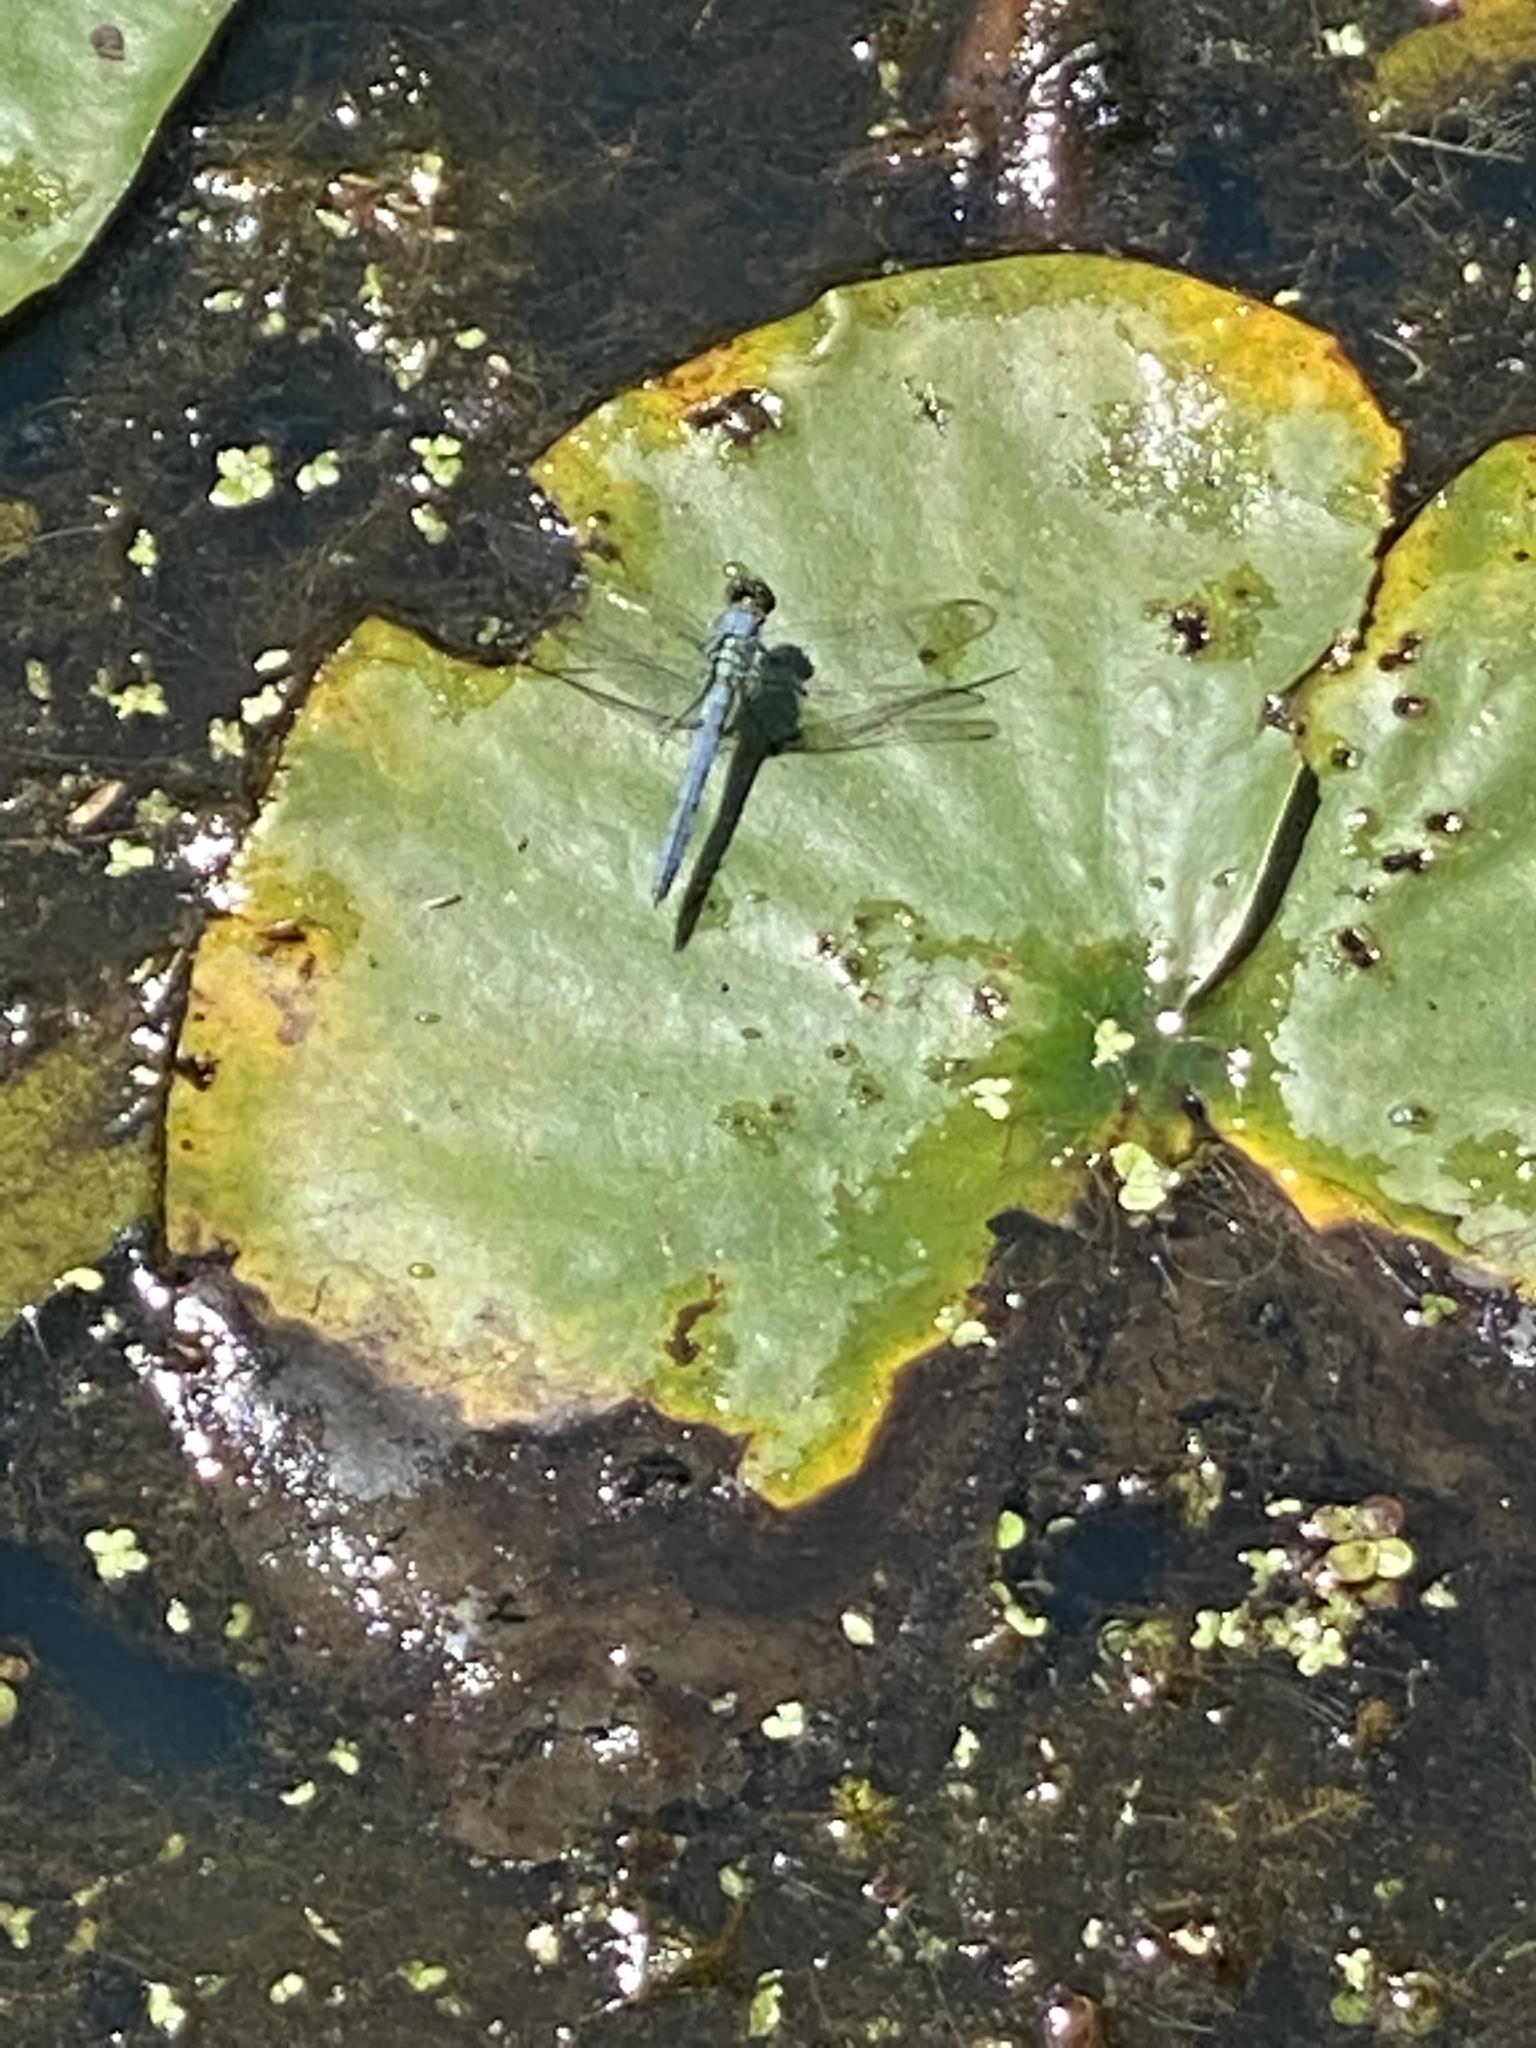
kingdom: Animalia
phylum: Arthropoda
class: Insecta
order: Odonata
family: Libellulidae
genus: Erythemis
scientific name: Erythemis simplicicollis
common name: Eastern pondhawk
